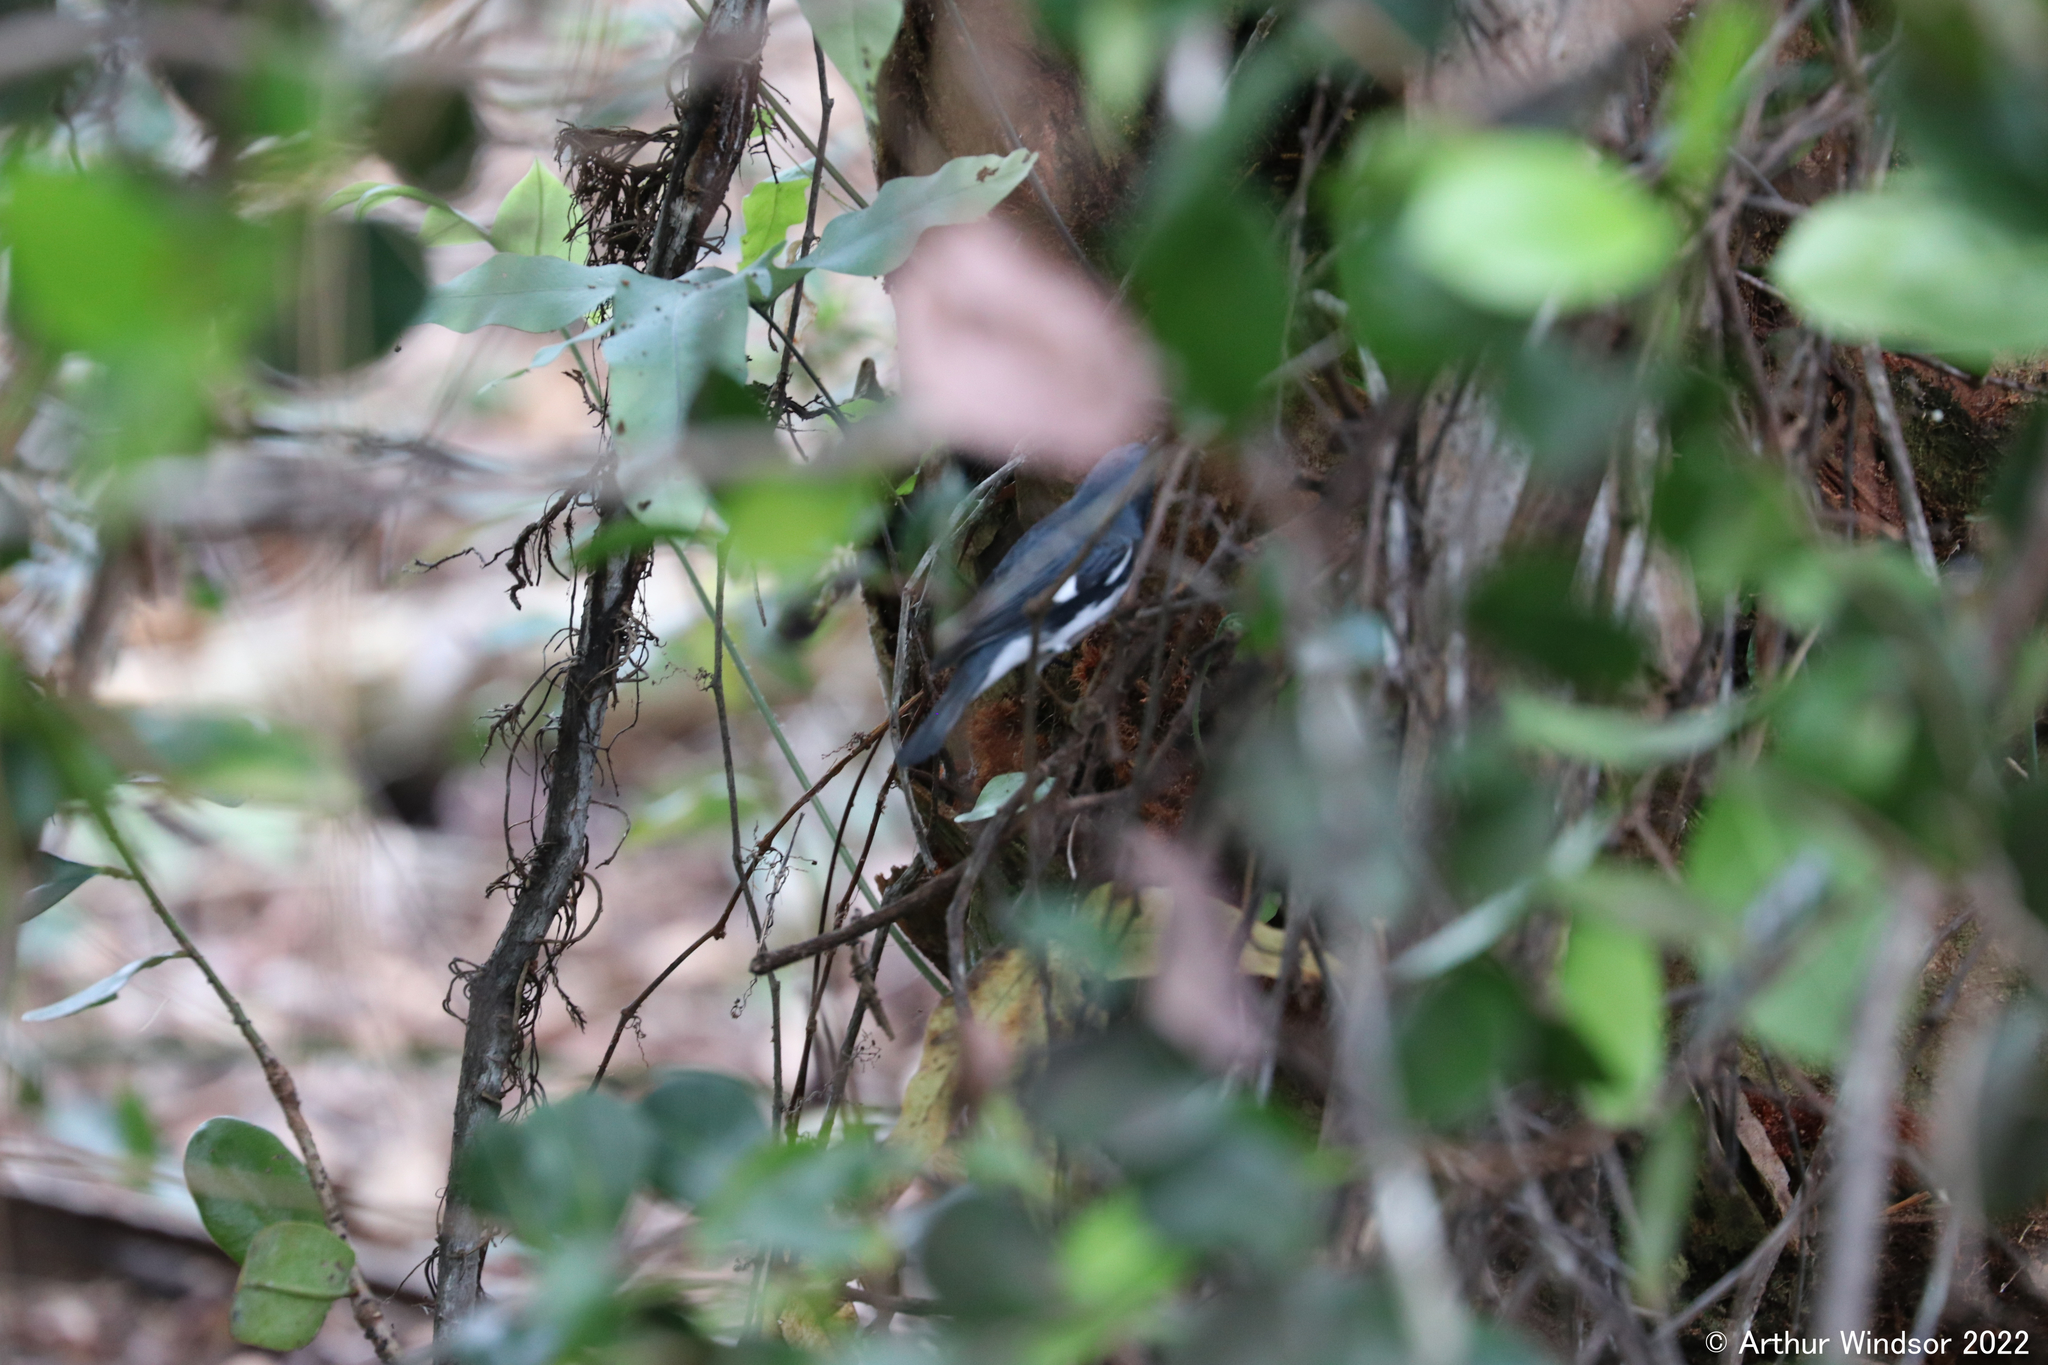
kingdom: Animalia
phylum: Chordata
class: Aves
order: Passeriformes
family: Parulidae
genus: Setophaga
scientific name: Setophaga caerulescens
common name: Black-throated blue warbler
